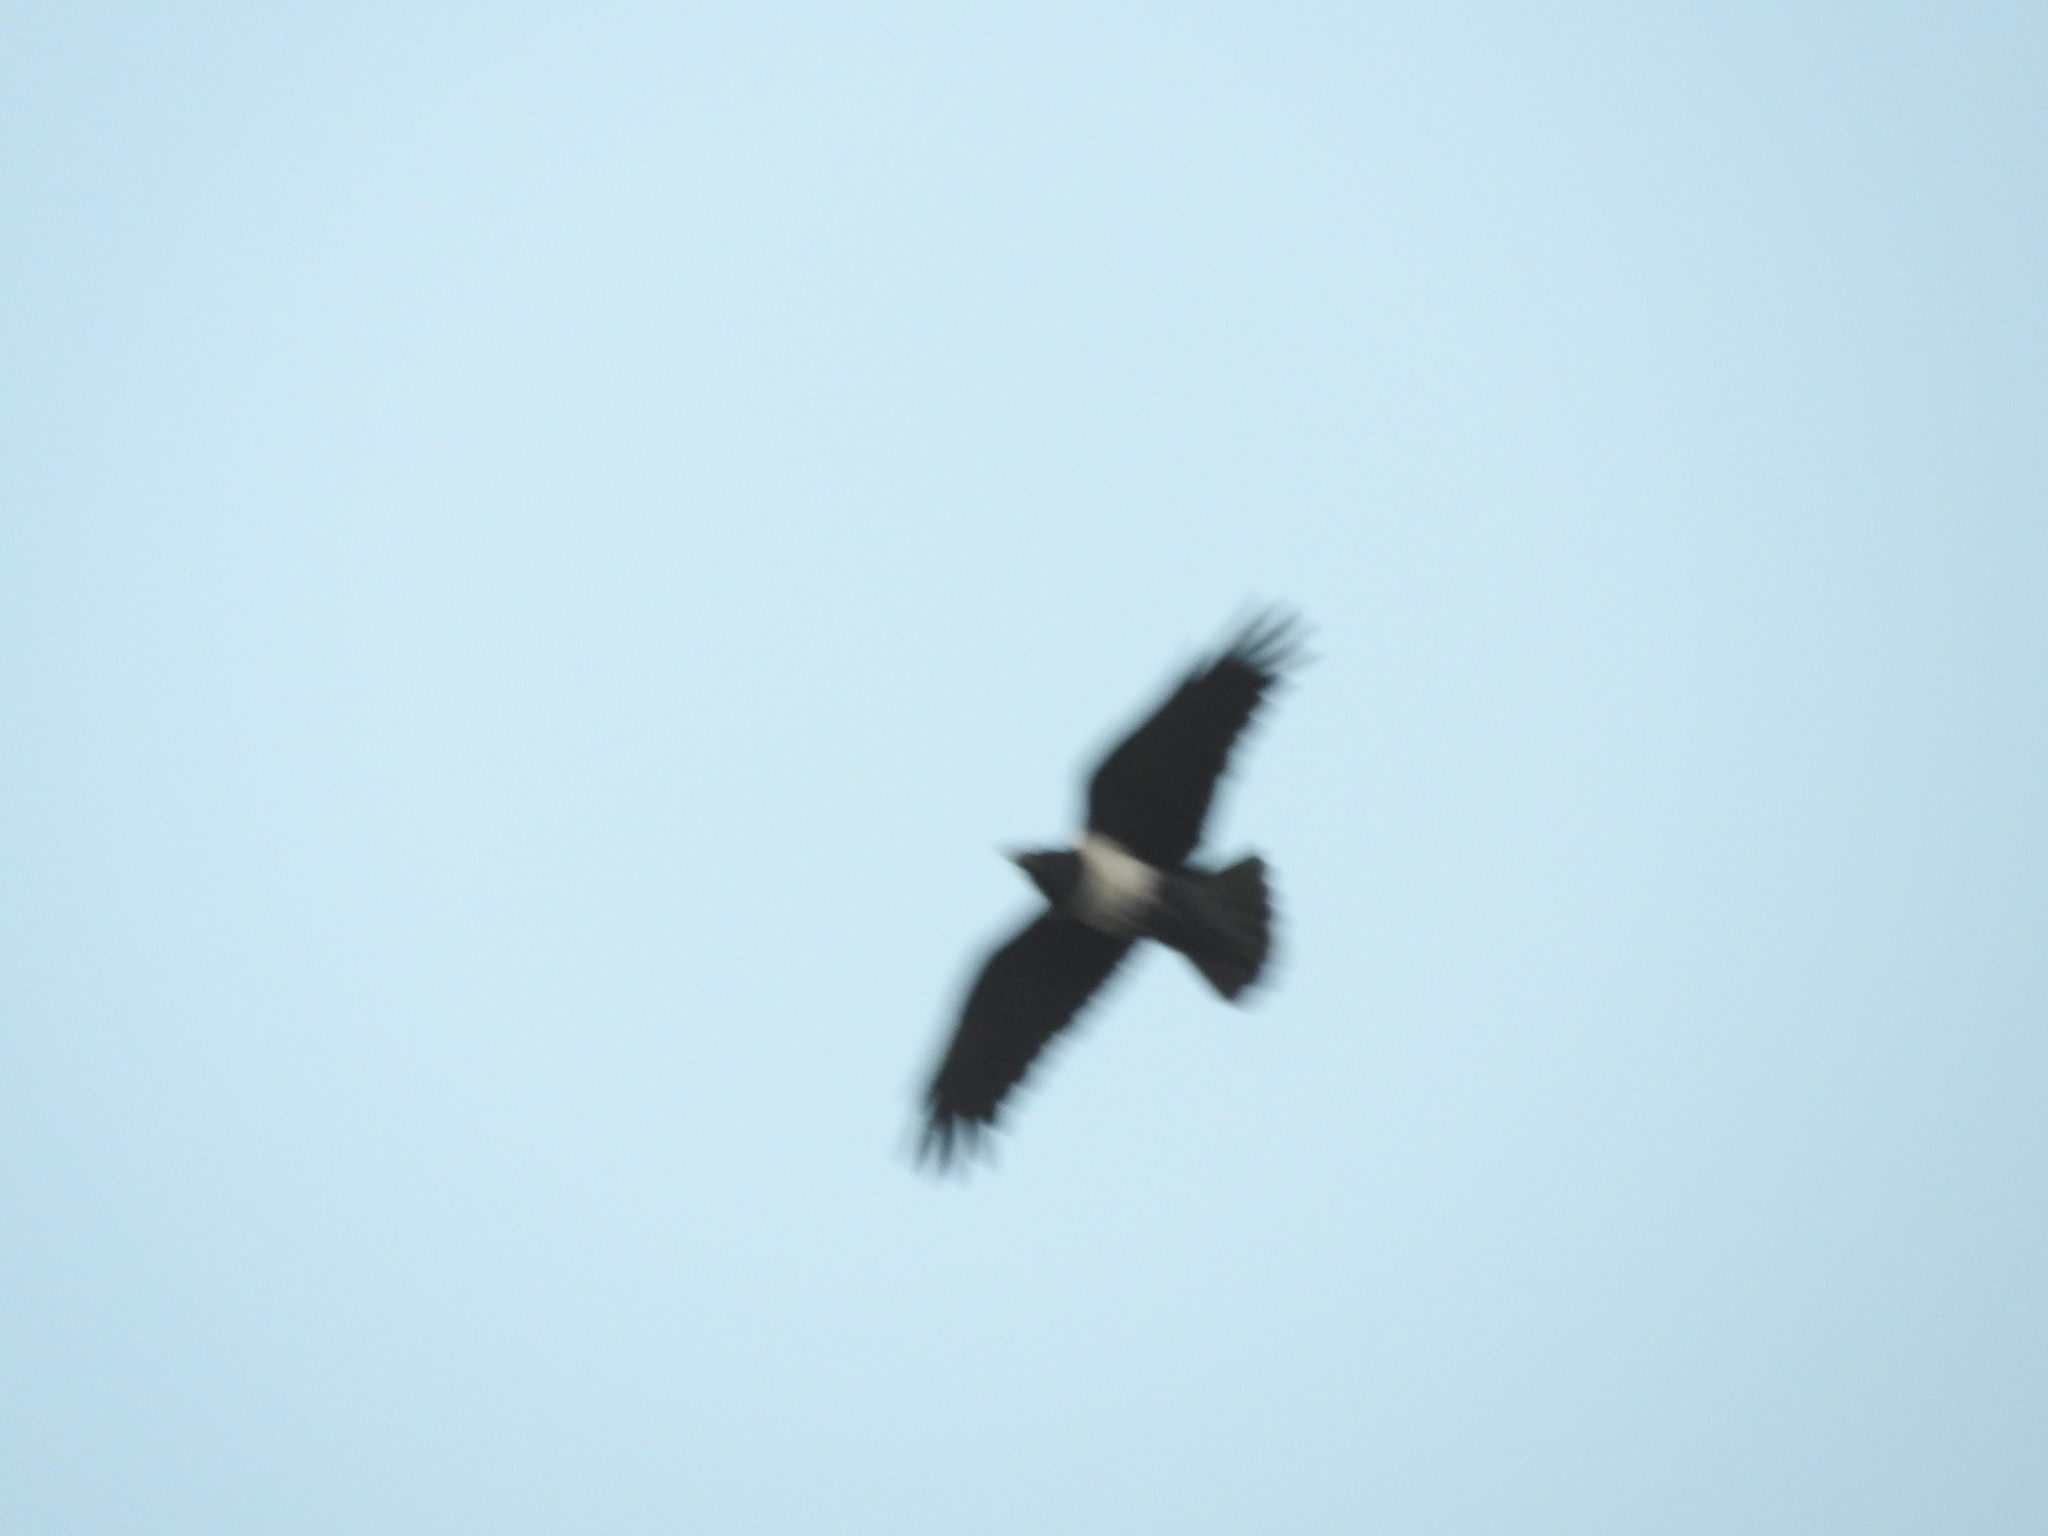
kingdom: Animalia
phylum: Chordata
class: Aves
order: Passeriformes
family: Corvidae
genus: Corvus
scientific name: Corvus albus
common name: Pied crow
